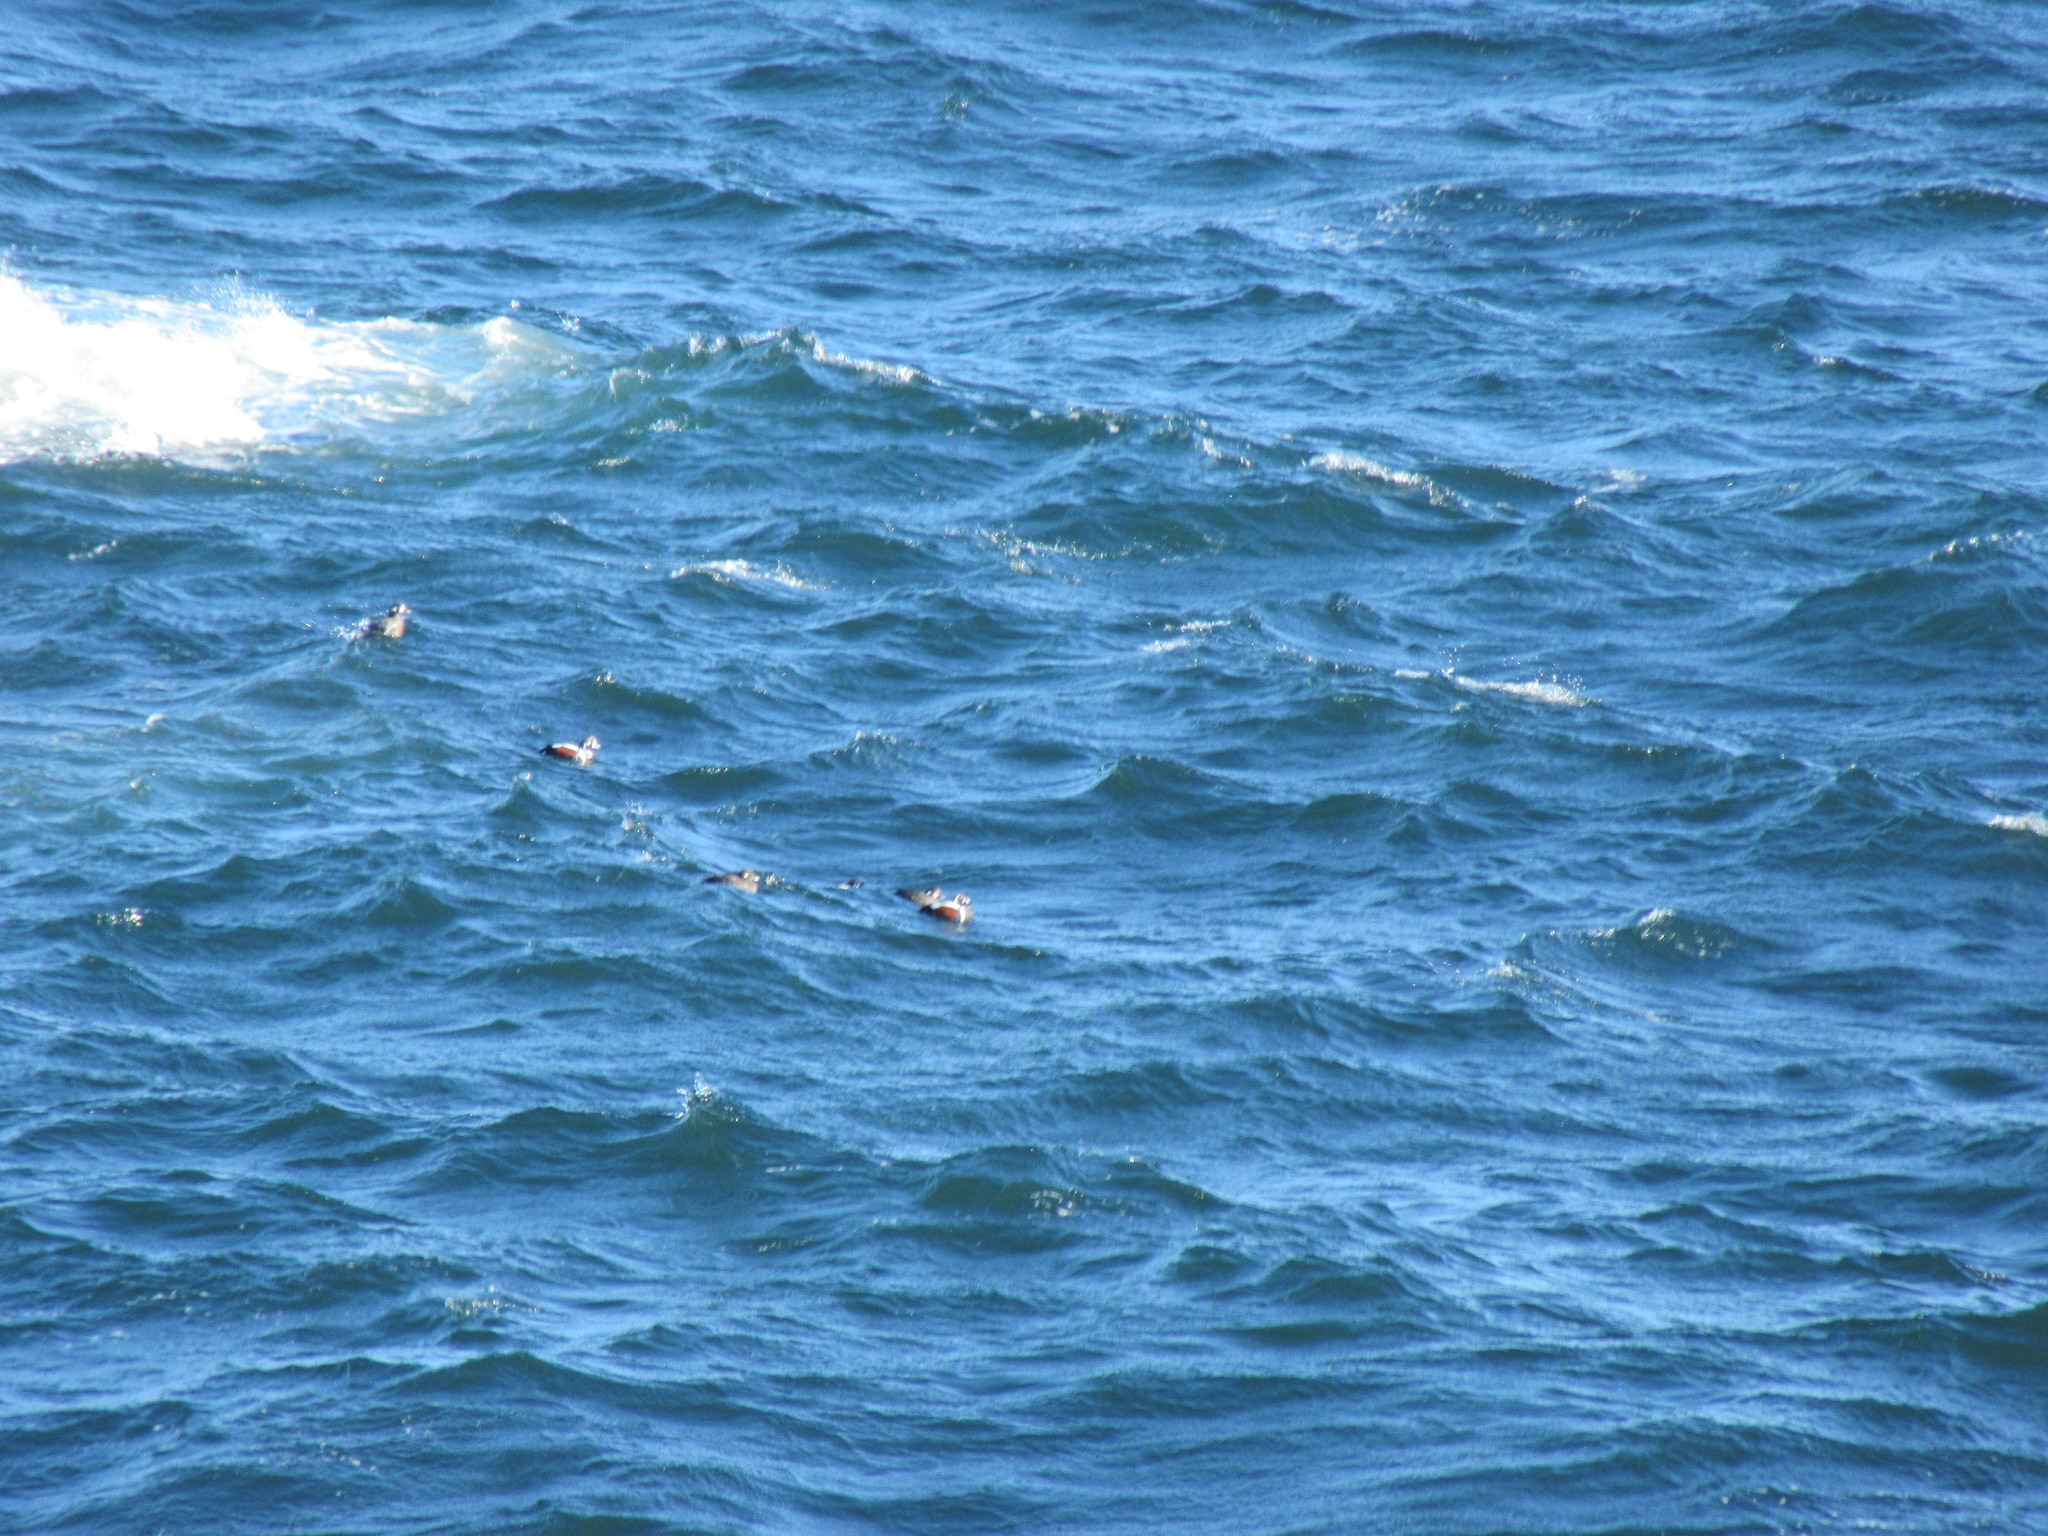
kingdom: Animalia
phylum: Chordata
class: Aves
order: Anseriformes
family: Anatidae
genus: Histrionicus
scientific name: Histrionicus histrionicus
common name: Harlequin duck
